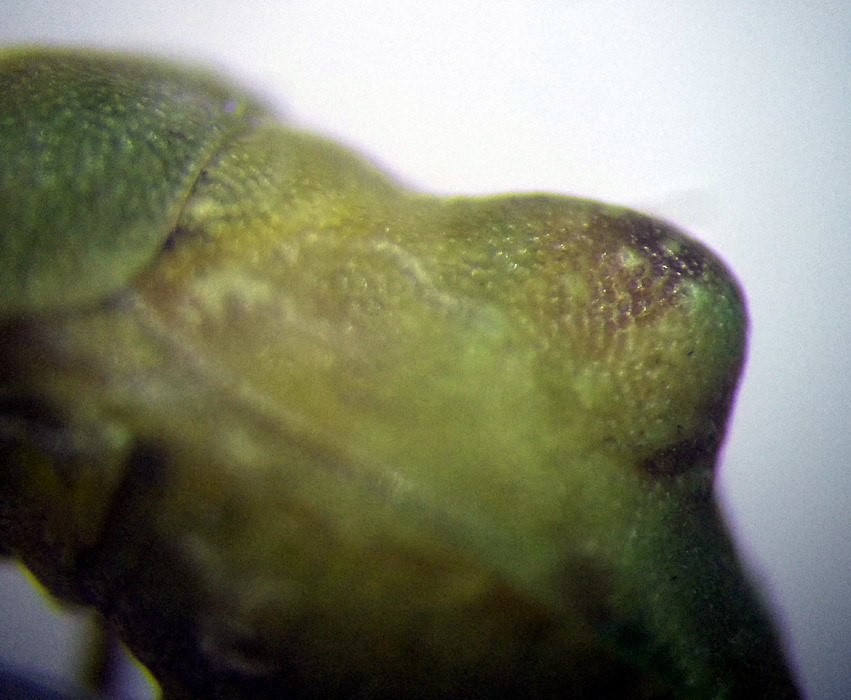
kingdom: Animalia
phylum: Arthropoda
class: Insecta
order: Hemiptera
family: Pentatomidae
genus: Tarisa
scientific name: Tarisa salsolae
